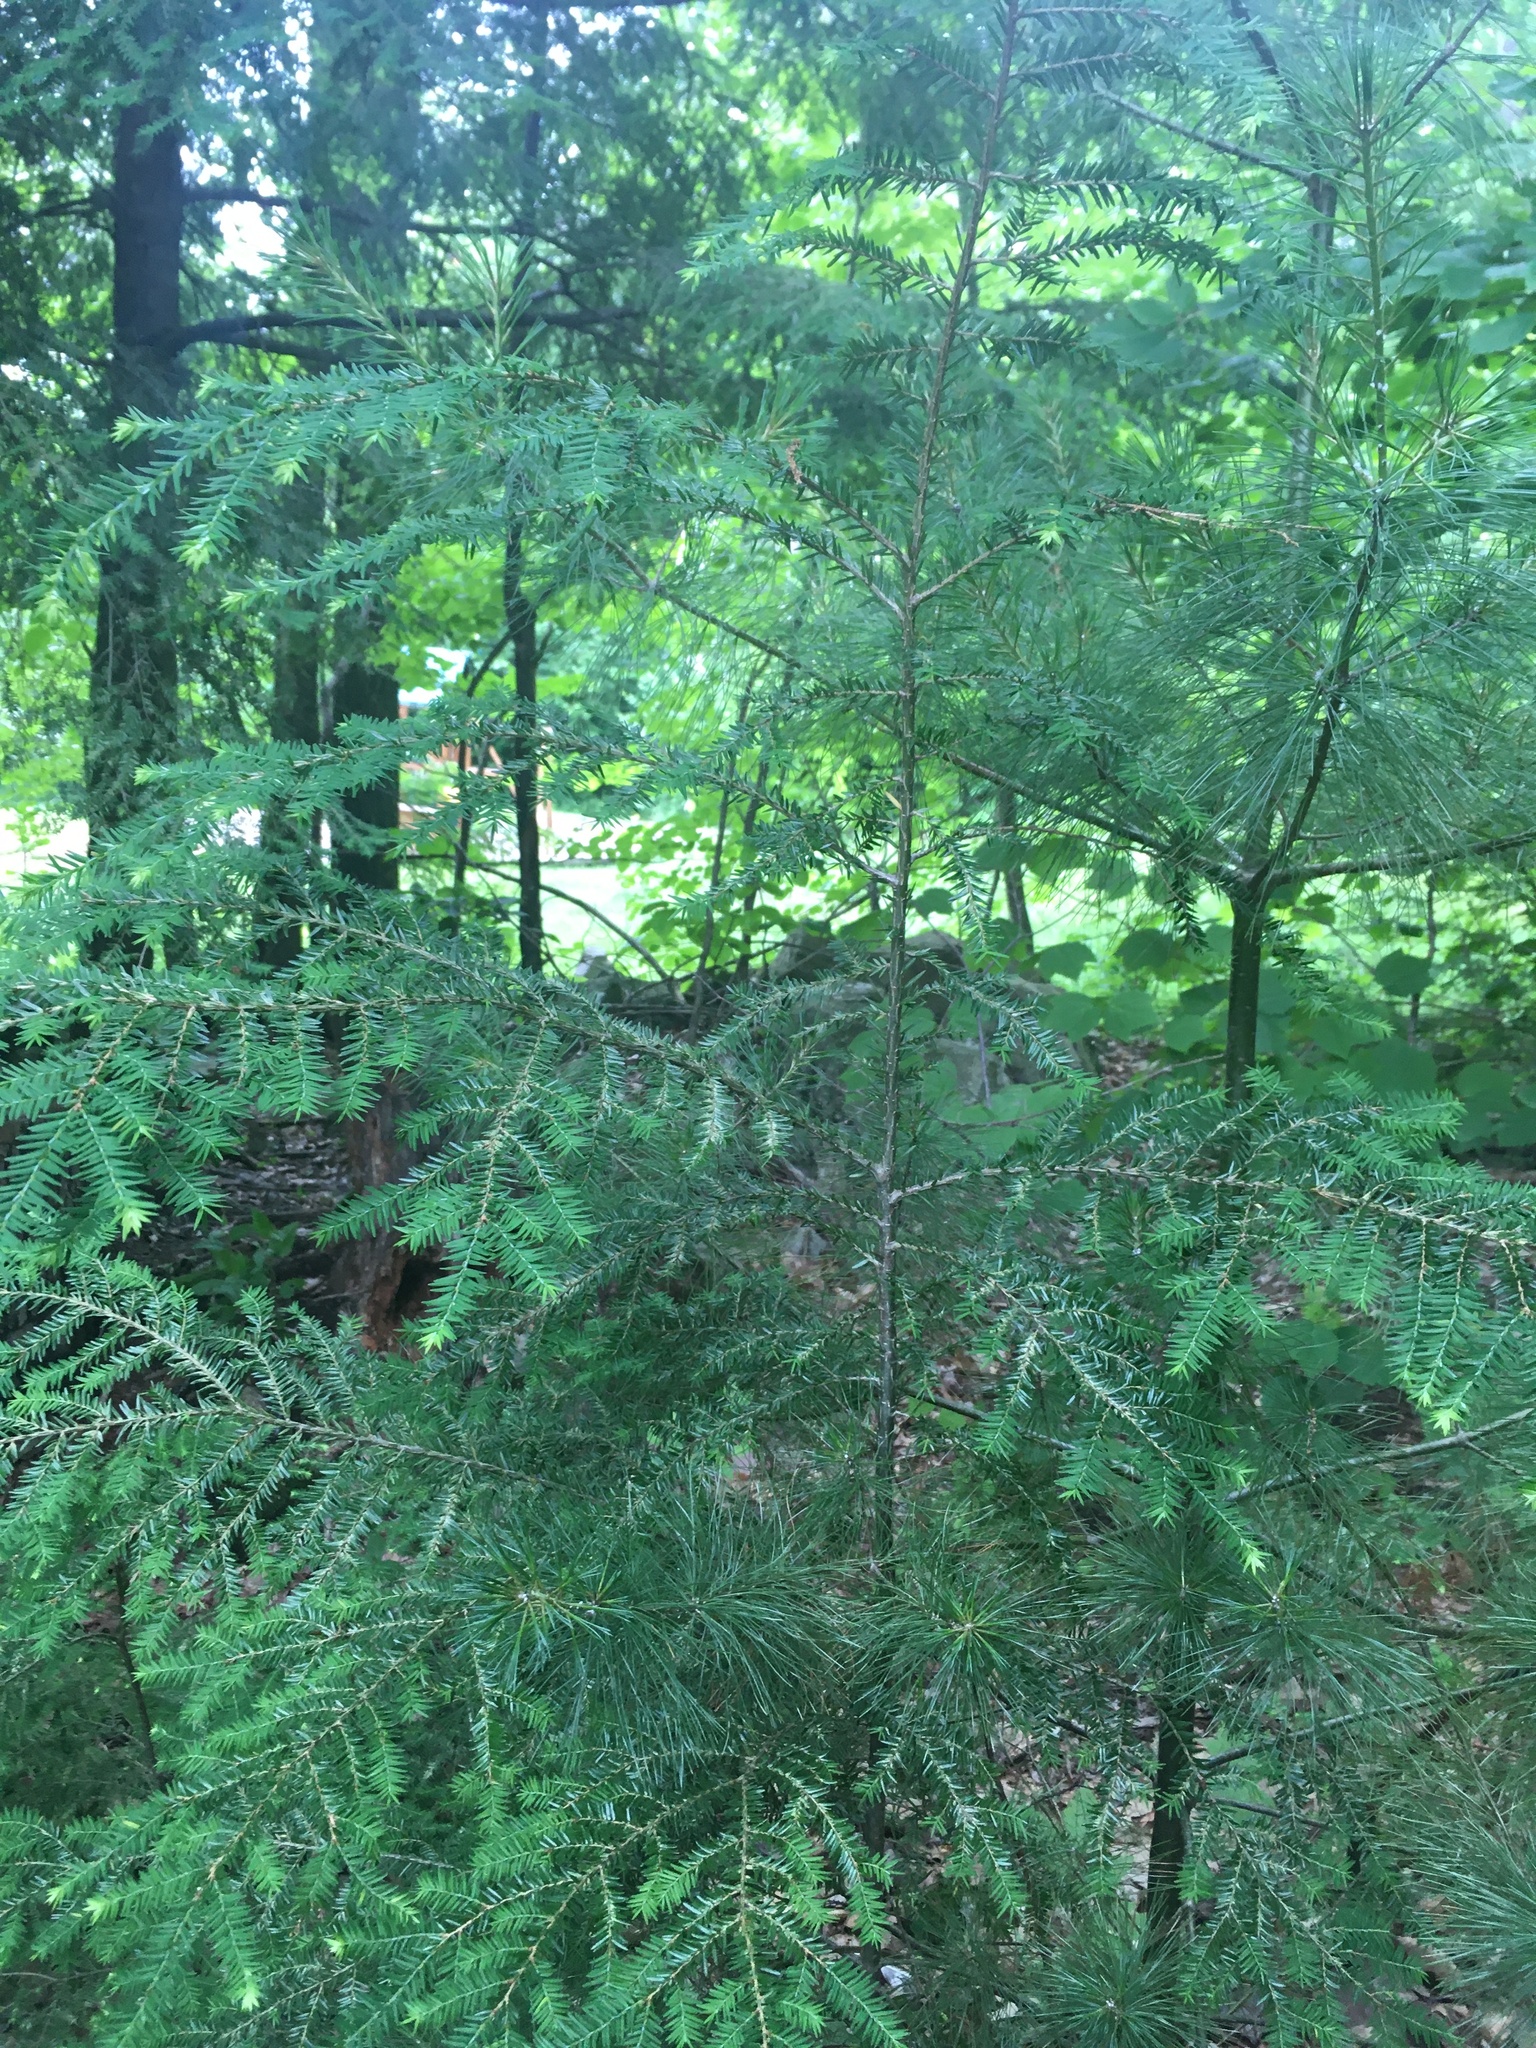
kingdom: Plantae
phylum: Tracheophyta
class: Pinopsida
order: Pinales
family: Pinaceae
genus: Tsuga
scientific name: Tsuga canadensis
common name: Eastern hemlock
